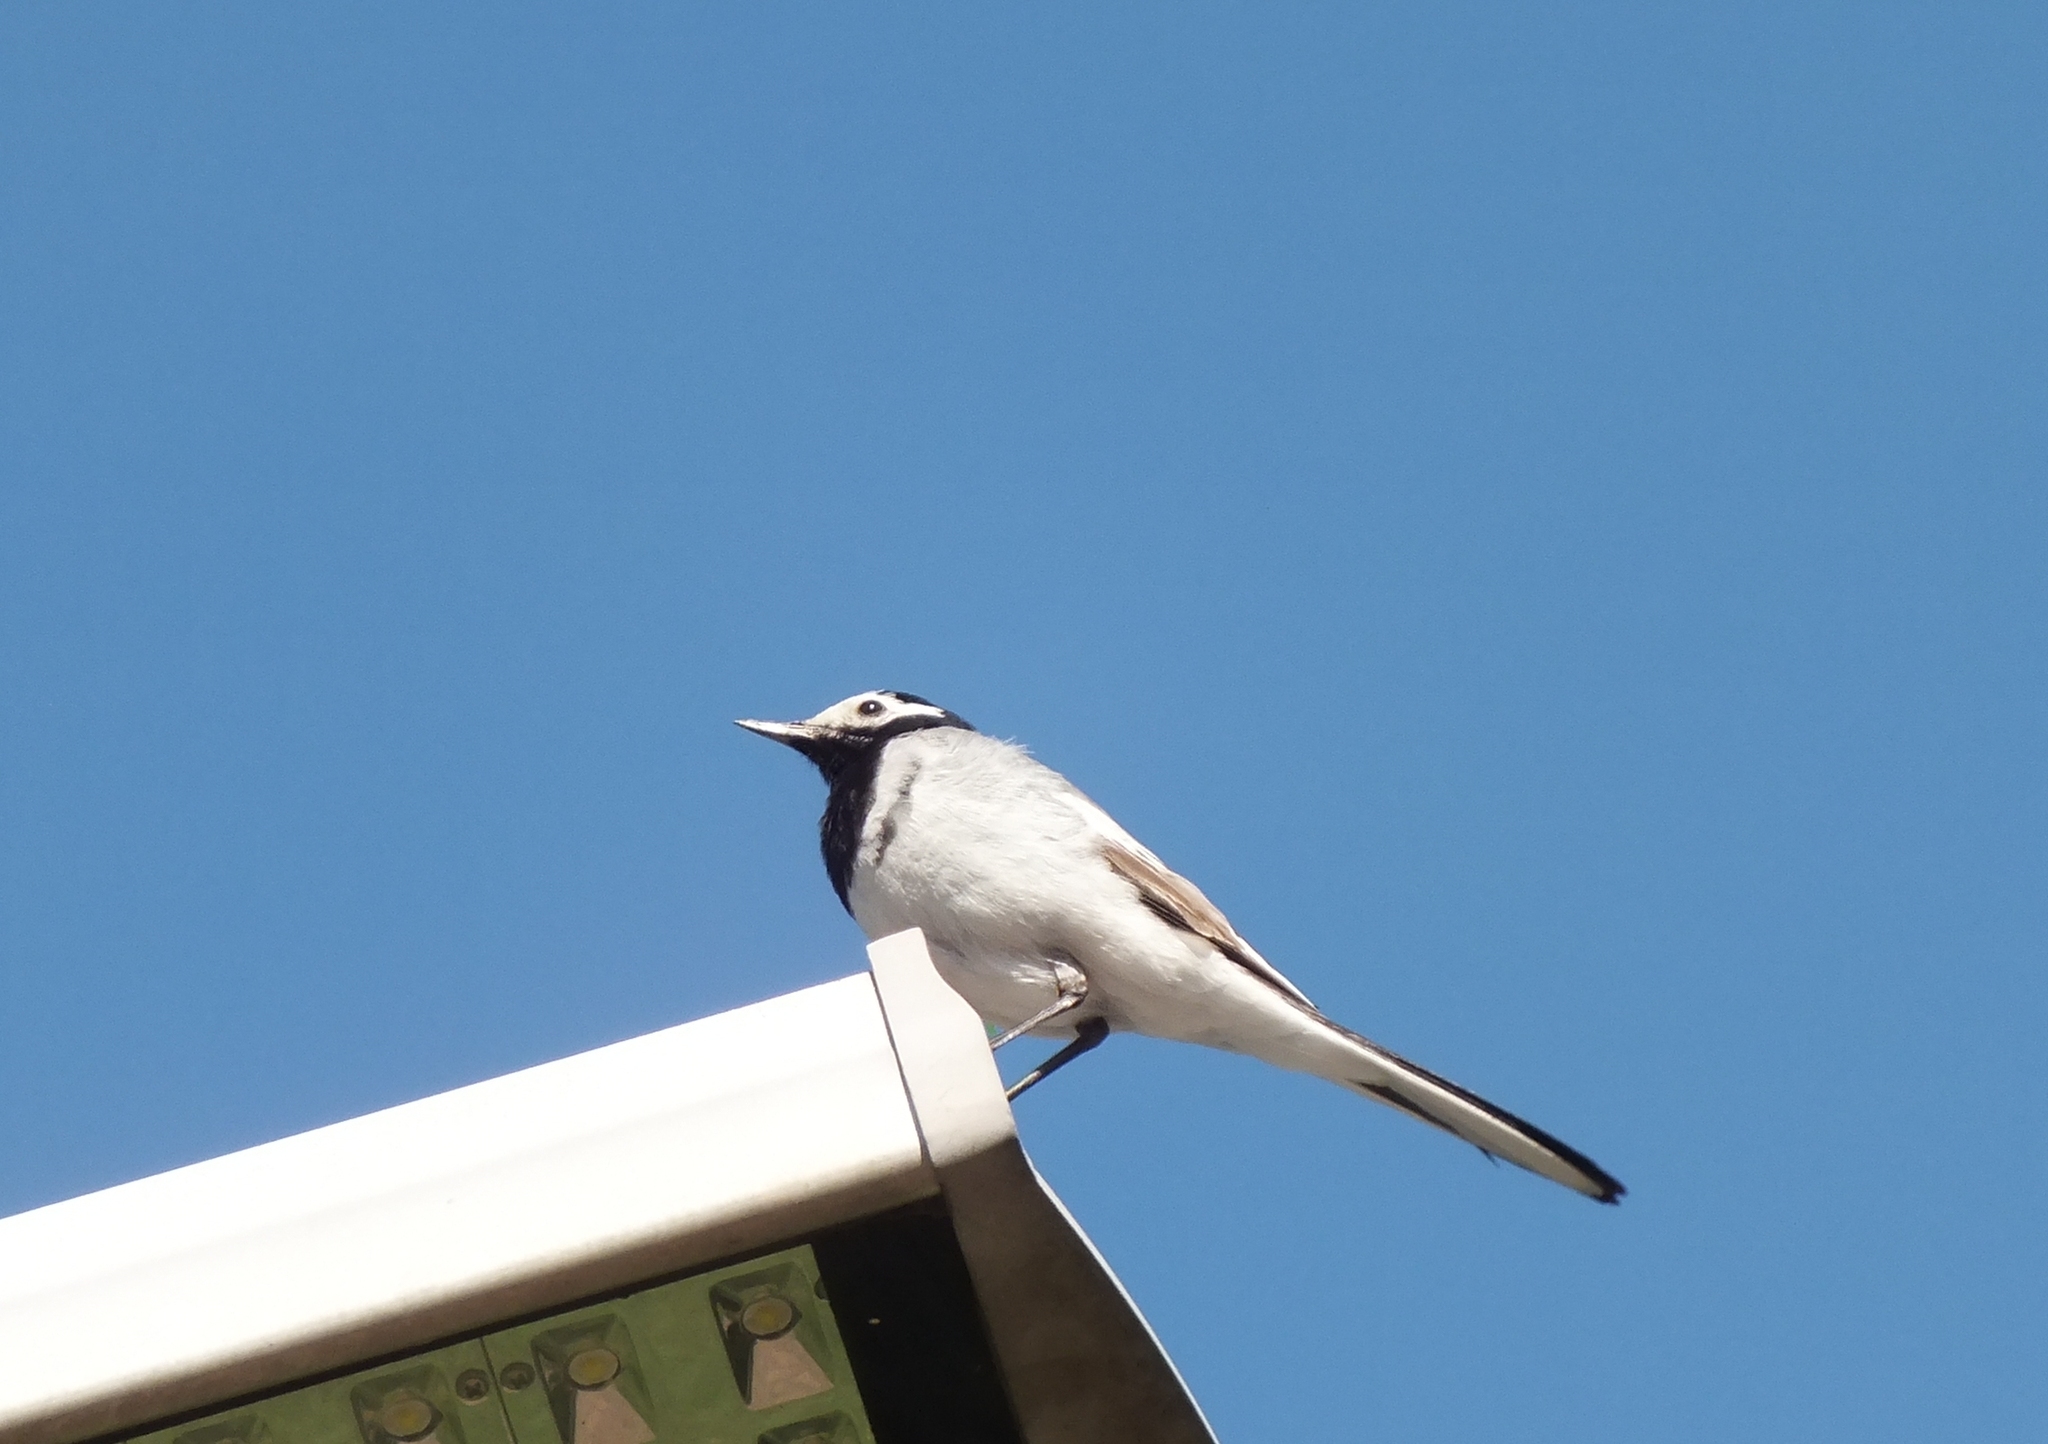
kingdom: Animalia
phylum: Chordata
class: Aves
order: Passeriformes
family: Motacillidae
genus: Motacilla
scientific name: Motacilla alba
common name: White wagtail
